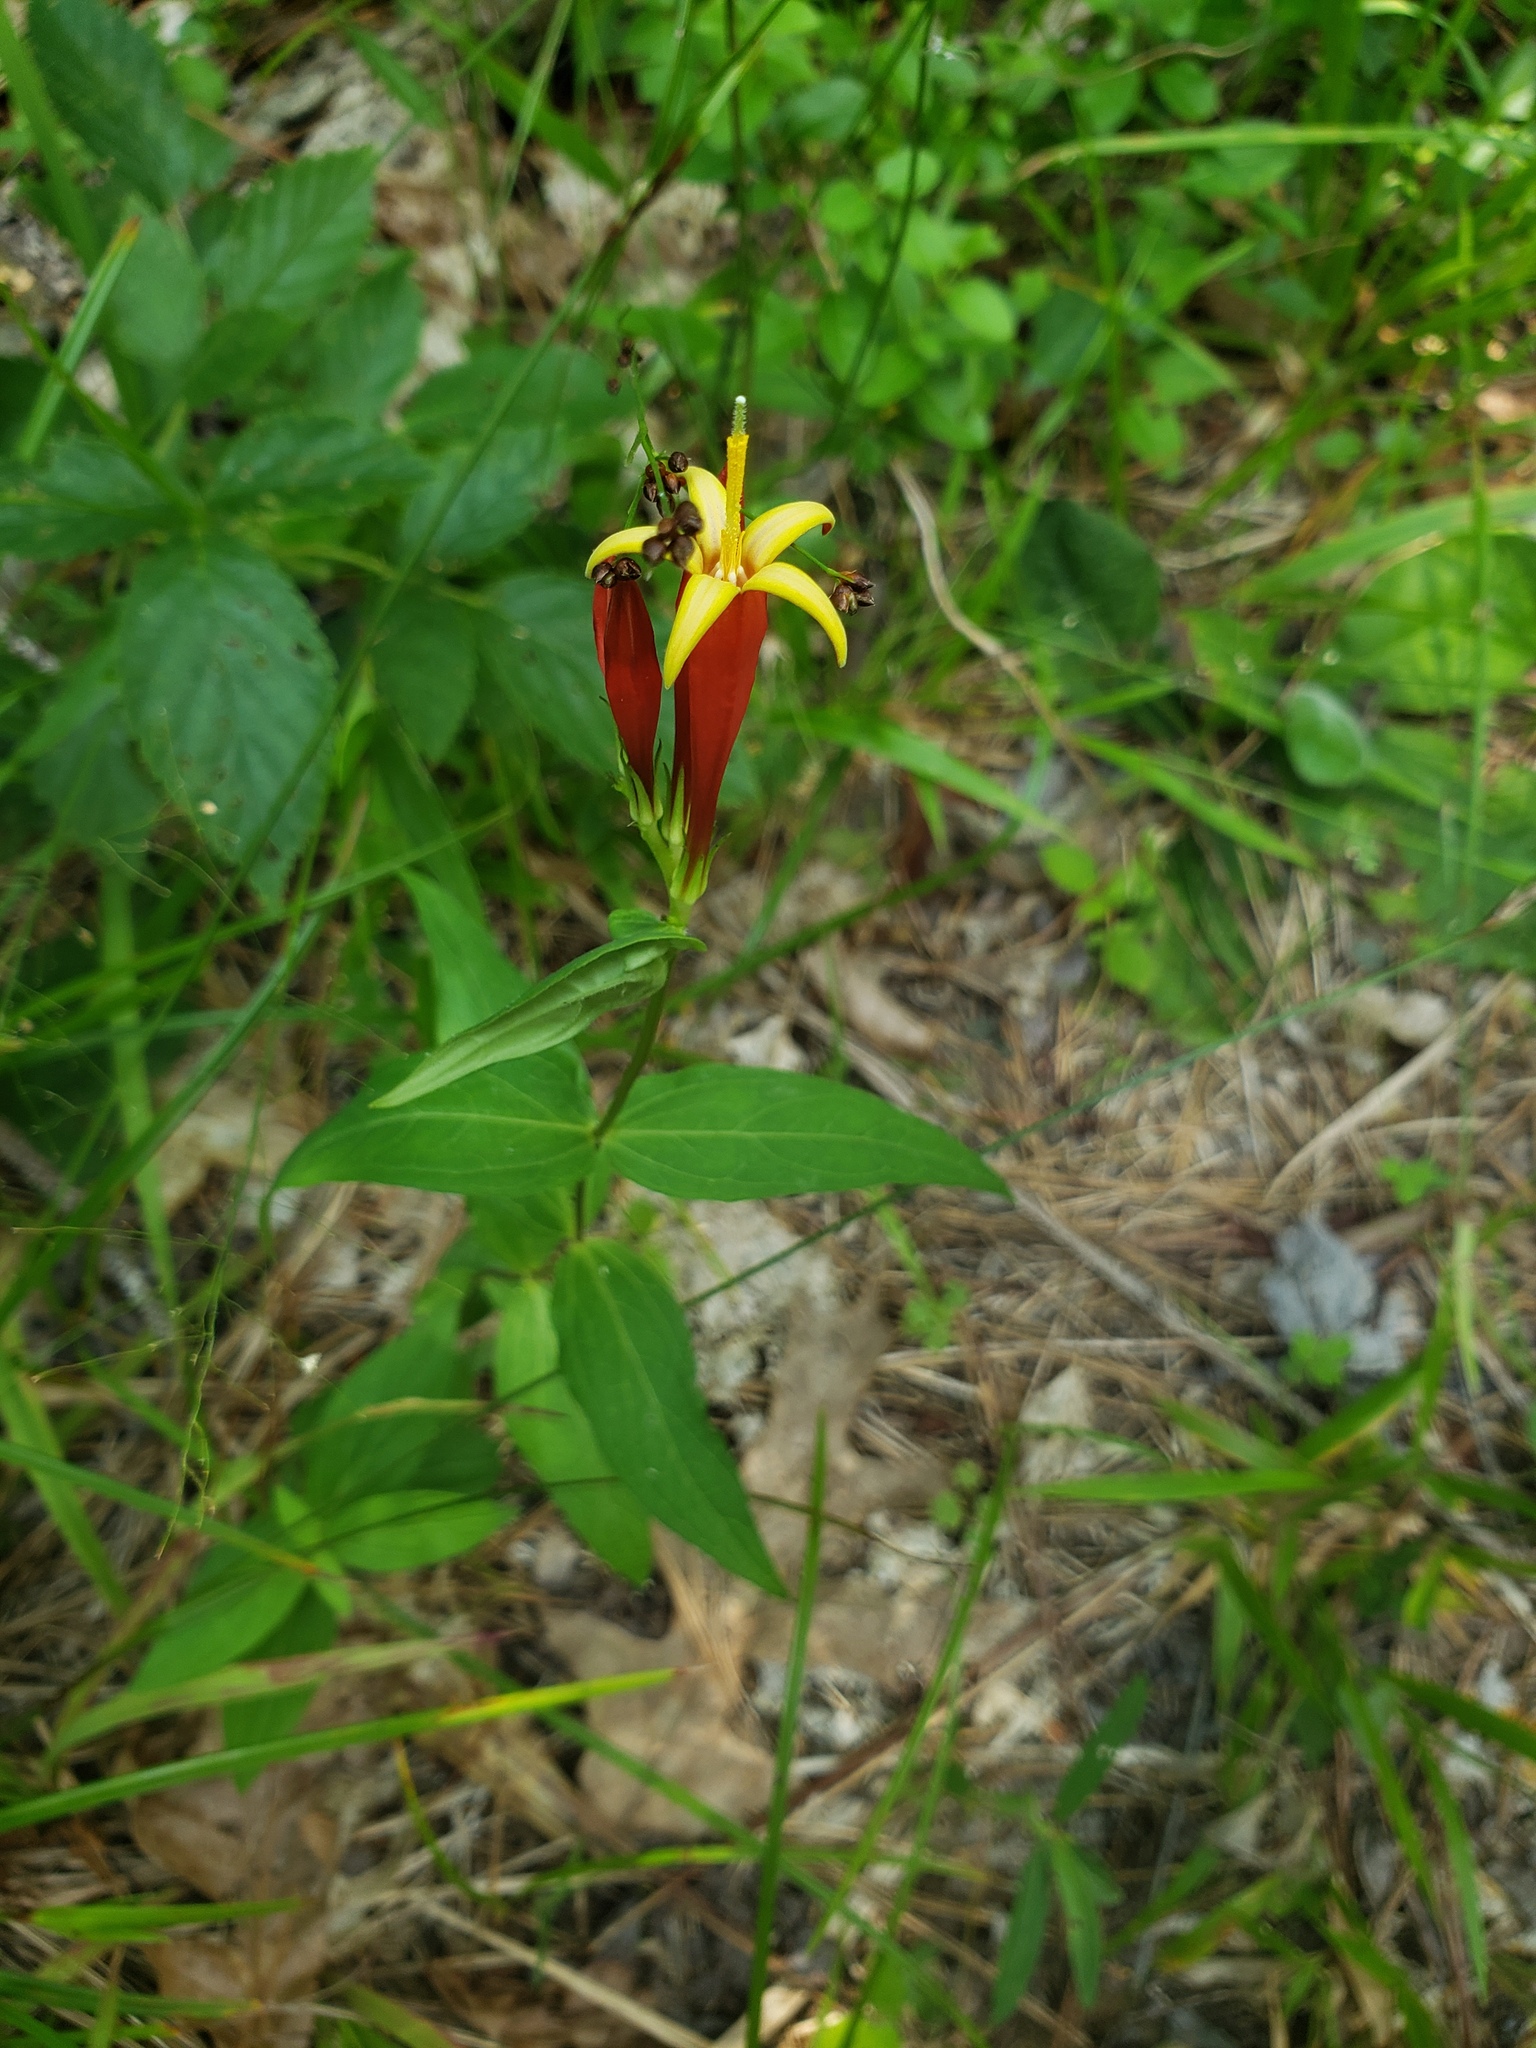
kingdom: Plantae
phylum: Tracheophyta
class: Magnoliopsida
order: Gentianales
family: Loganiaceae
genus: Spigelia
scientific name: Spigelia marilandica
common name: Indian-pink
